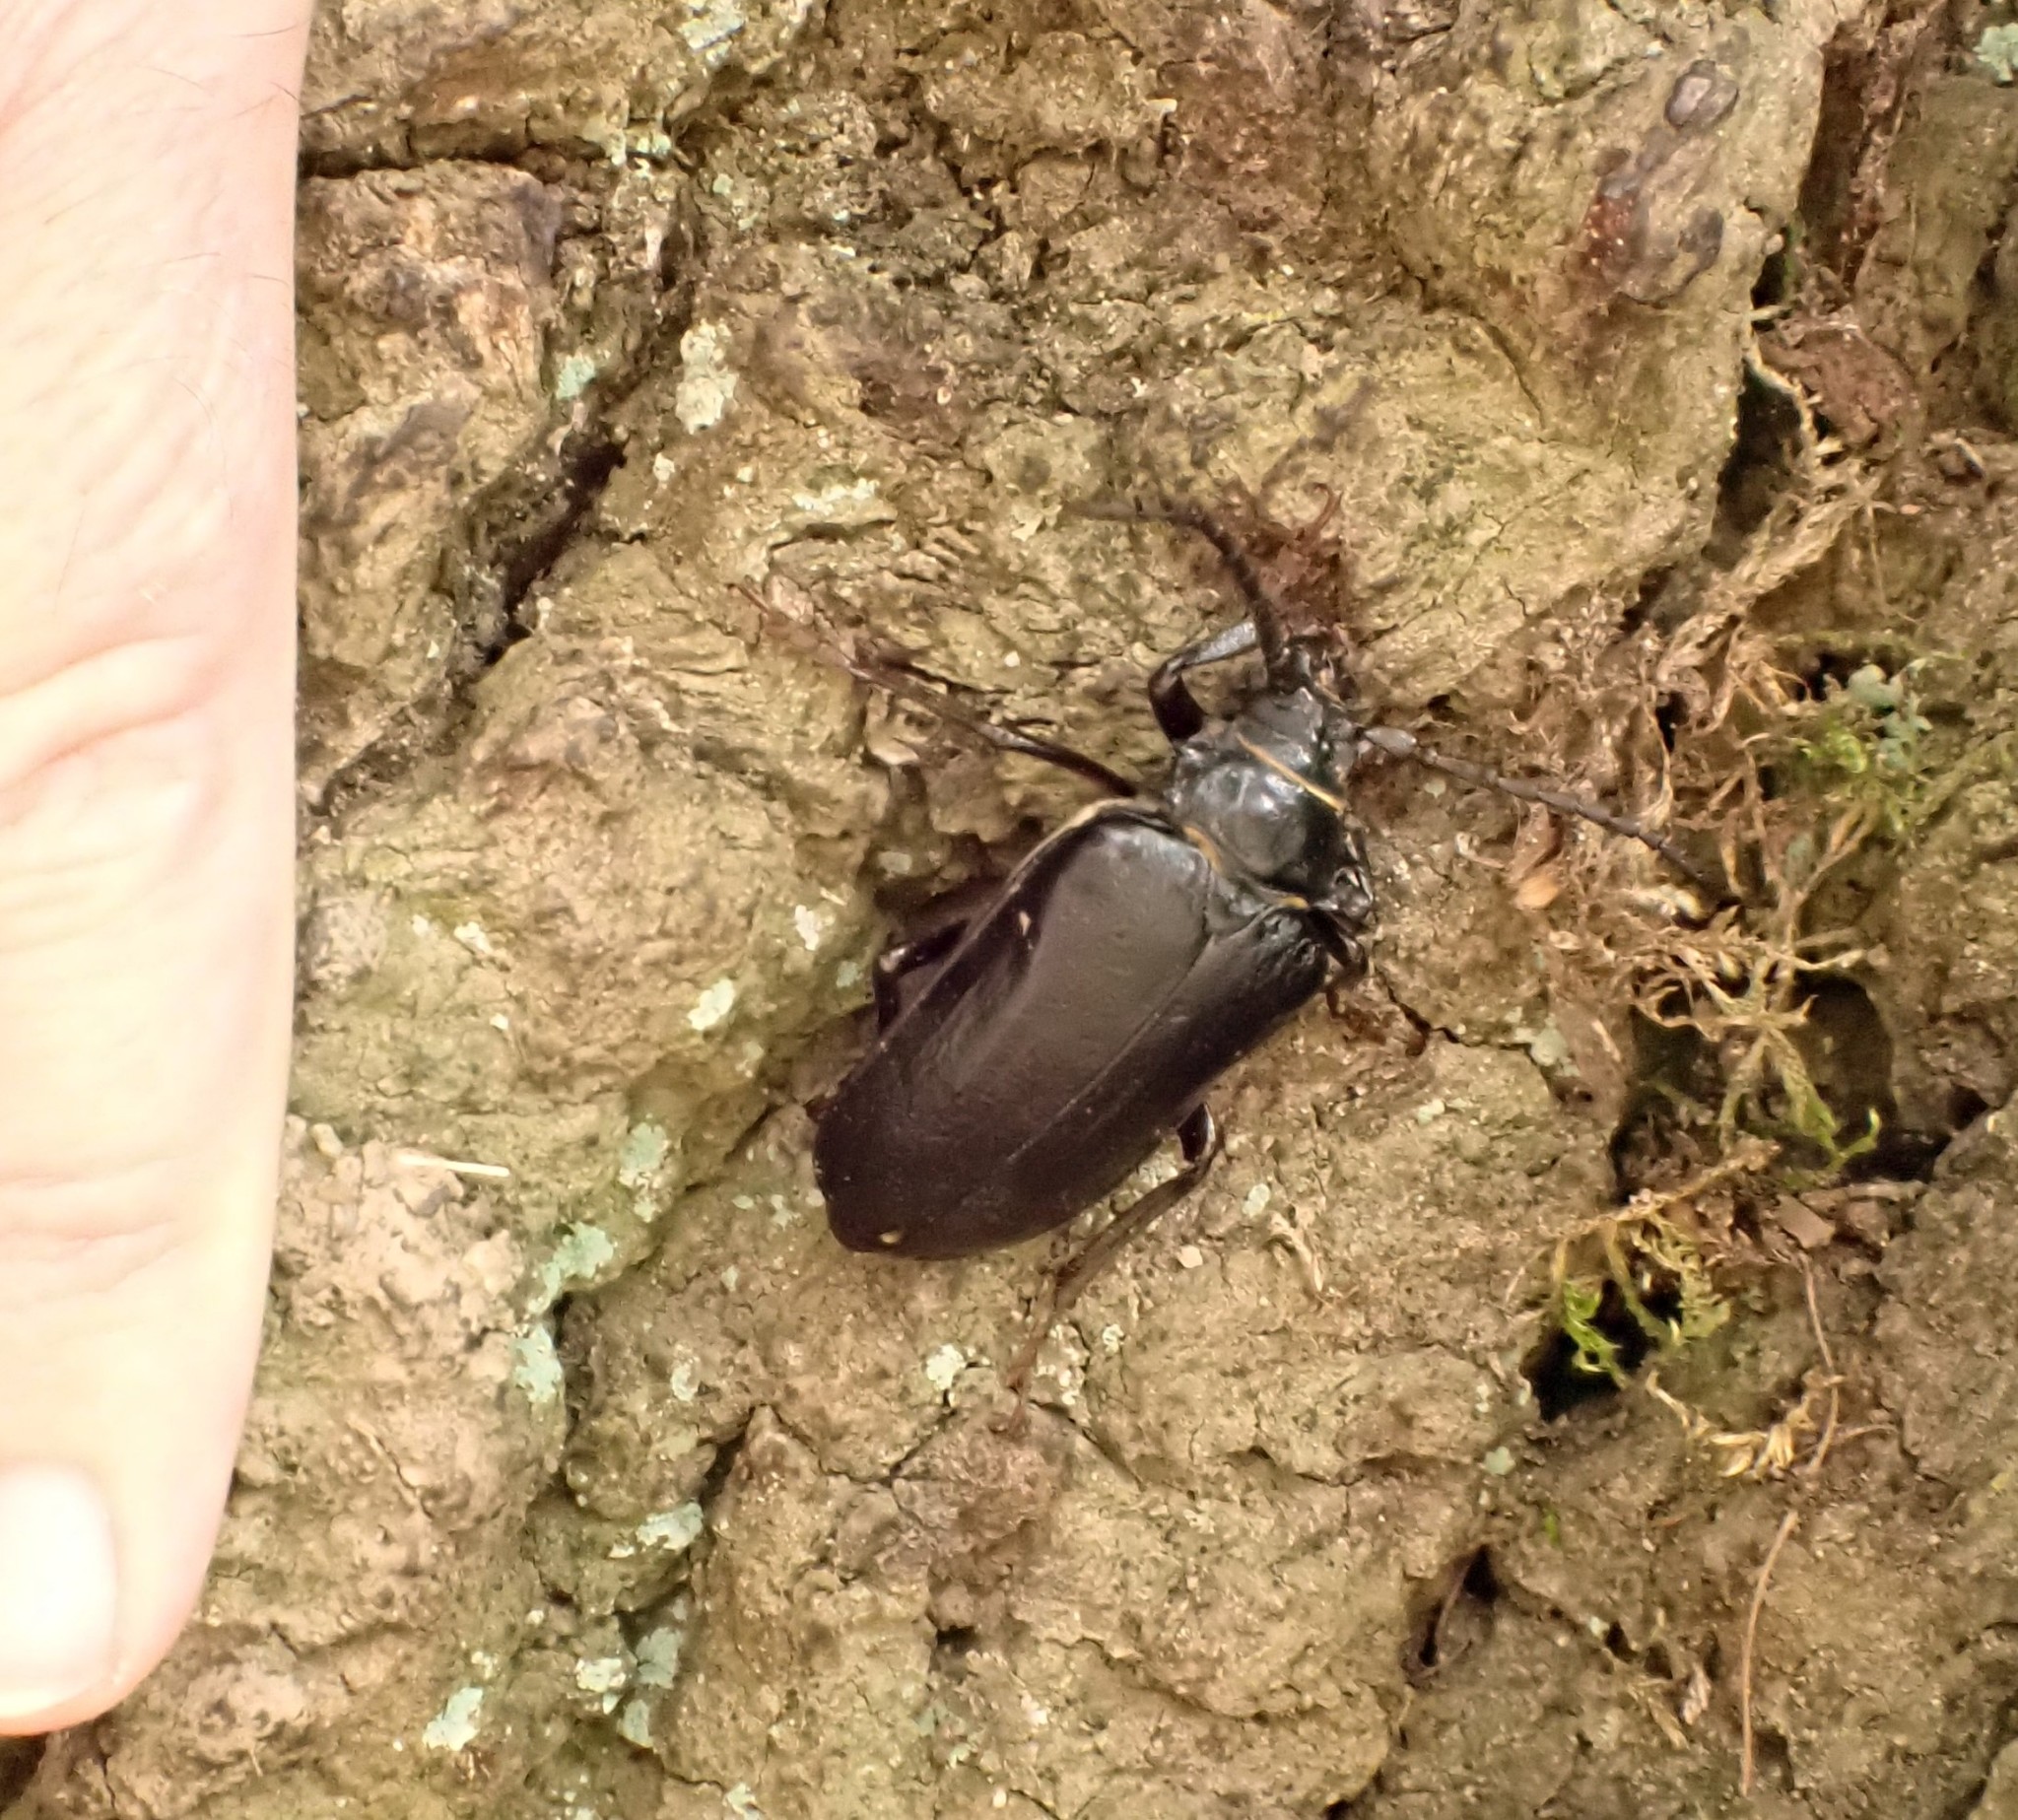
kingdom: Animalia
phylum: Arthropoda
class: Insecta
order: Coleoptera
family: Cerambycidae
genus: Prionus
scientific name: Prionus coriarius
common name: Tanner beetle
